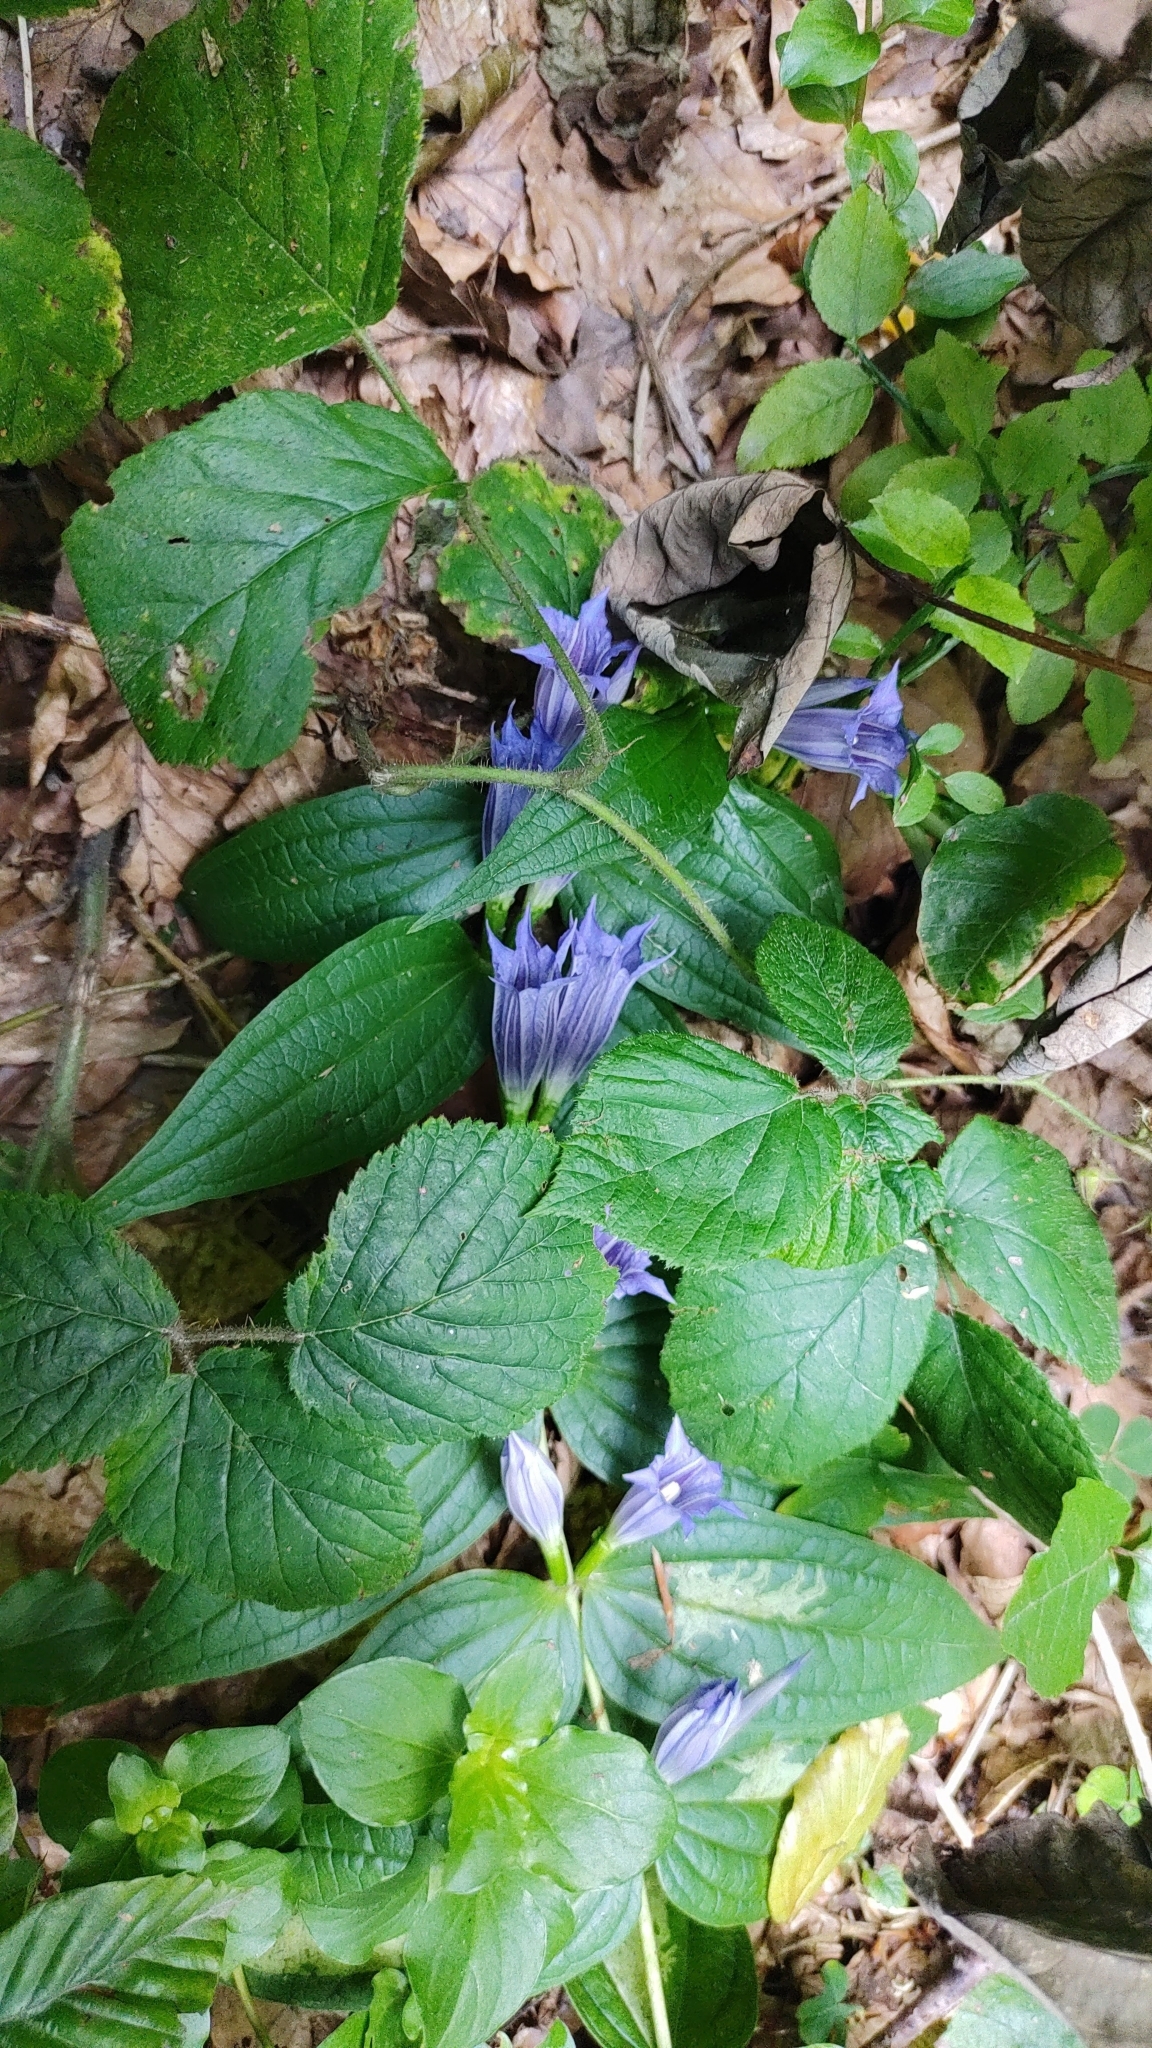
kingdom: Plantae
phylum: Tracheophyta
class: Magnoliopsida
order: Gentianales
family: Gentianaceae
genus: Gentiana
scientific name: Gentiana asclepiadea
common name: Willow gentian
